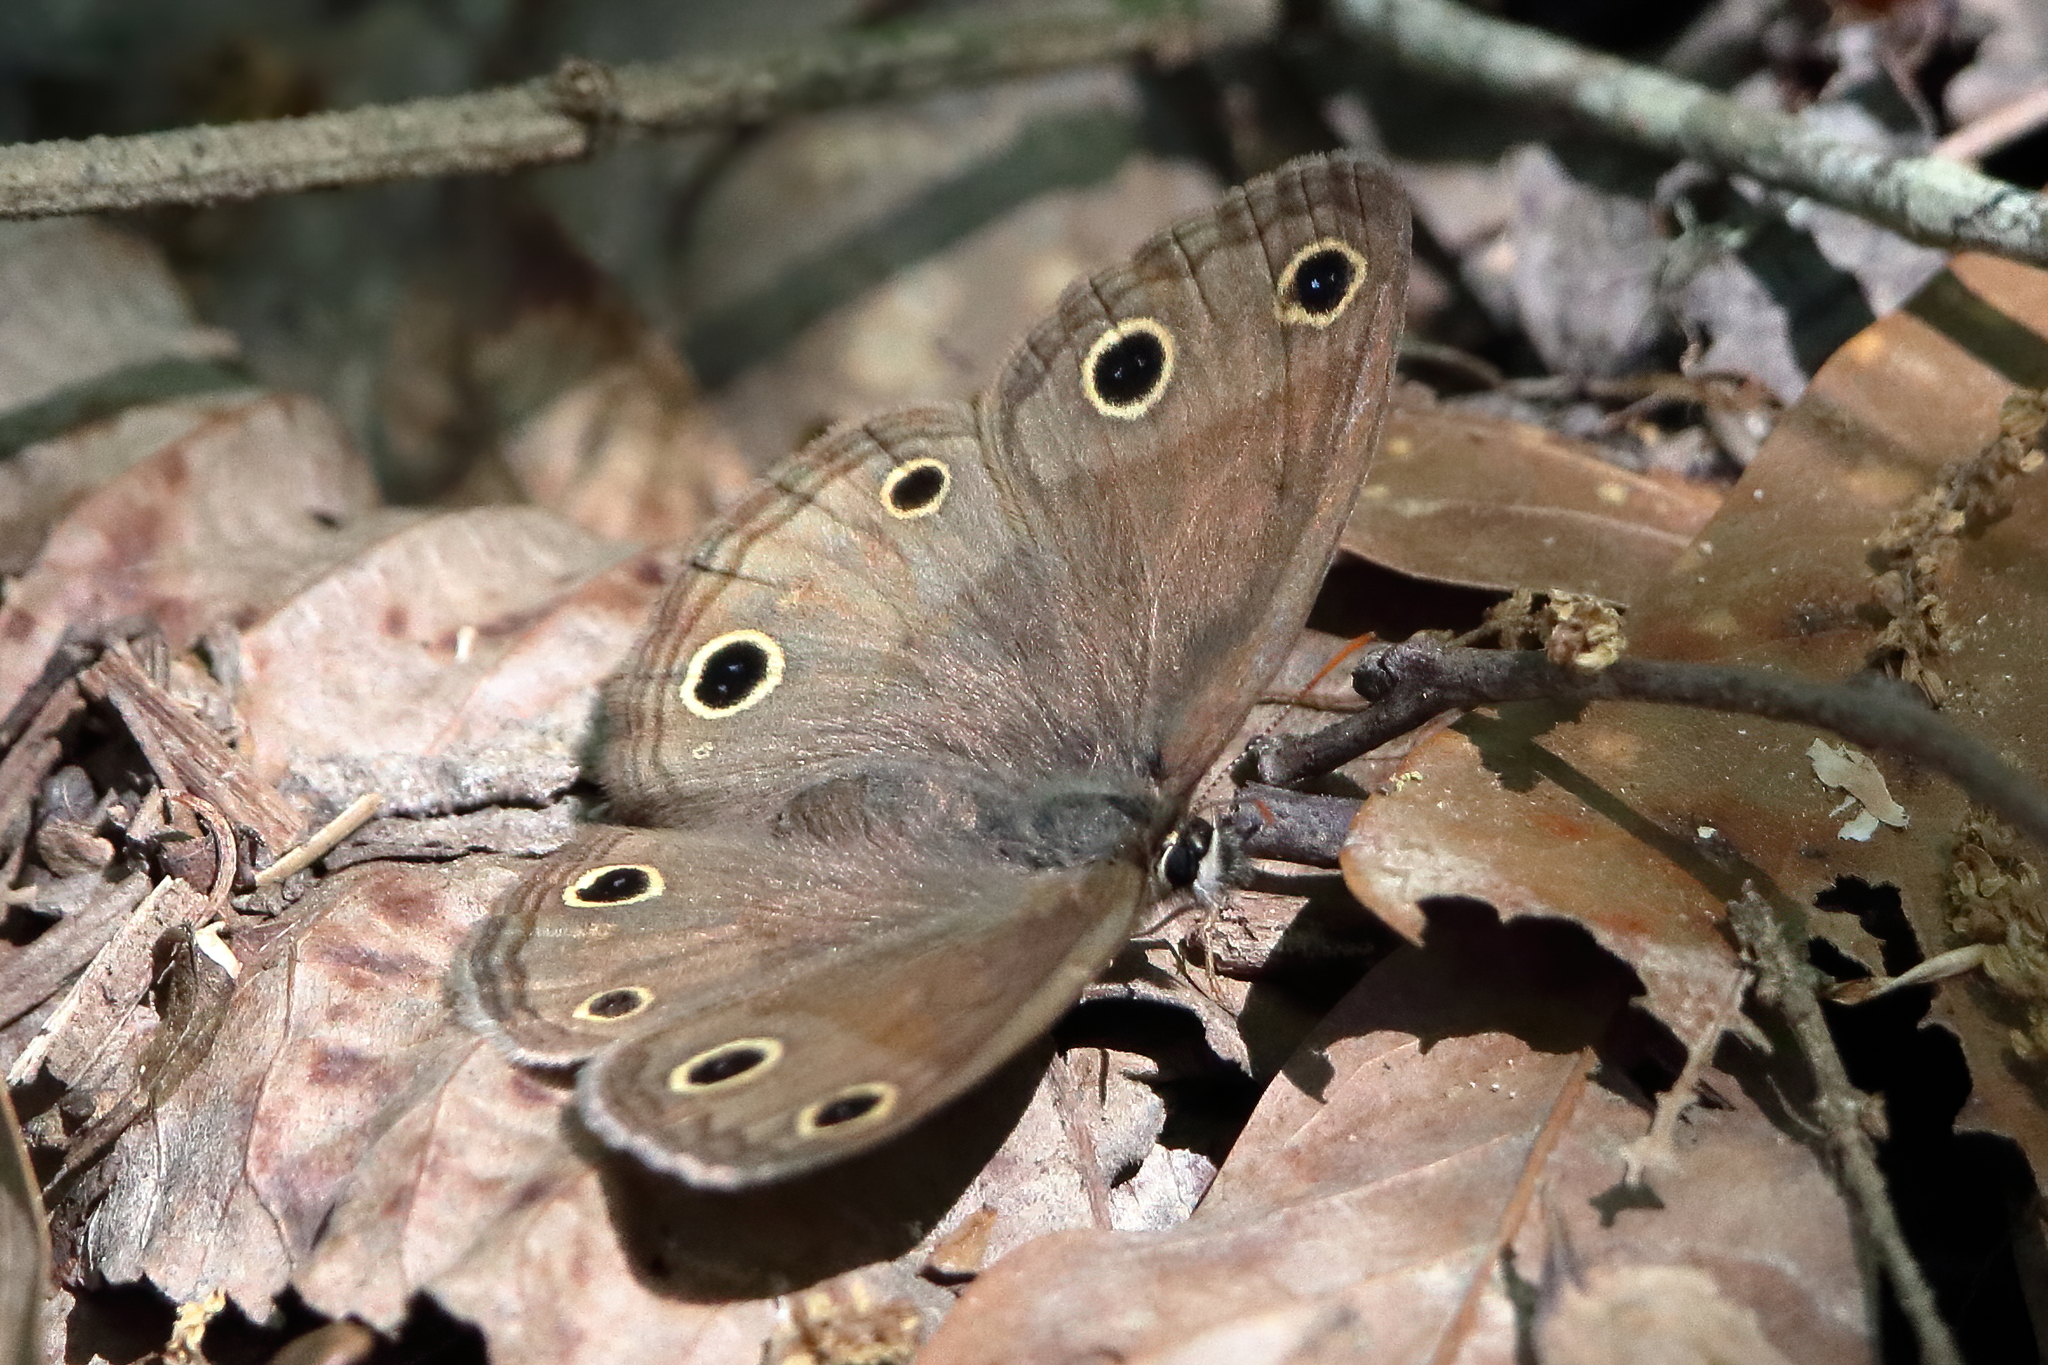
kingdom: Animalia
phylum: Arthropoda
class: Insecta
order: Lepidoptera
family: Nymphalidae
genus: Euptychia
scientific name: Euptychia cymela
